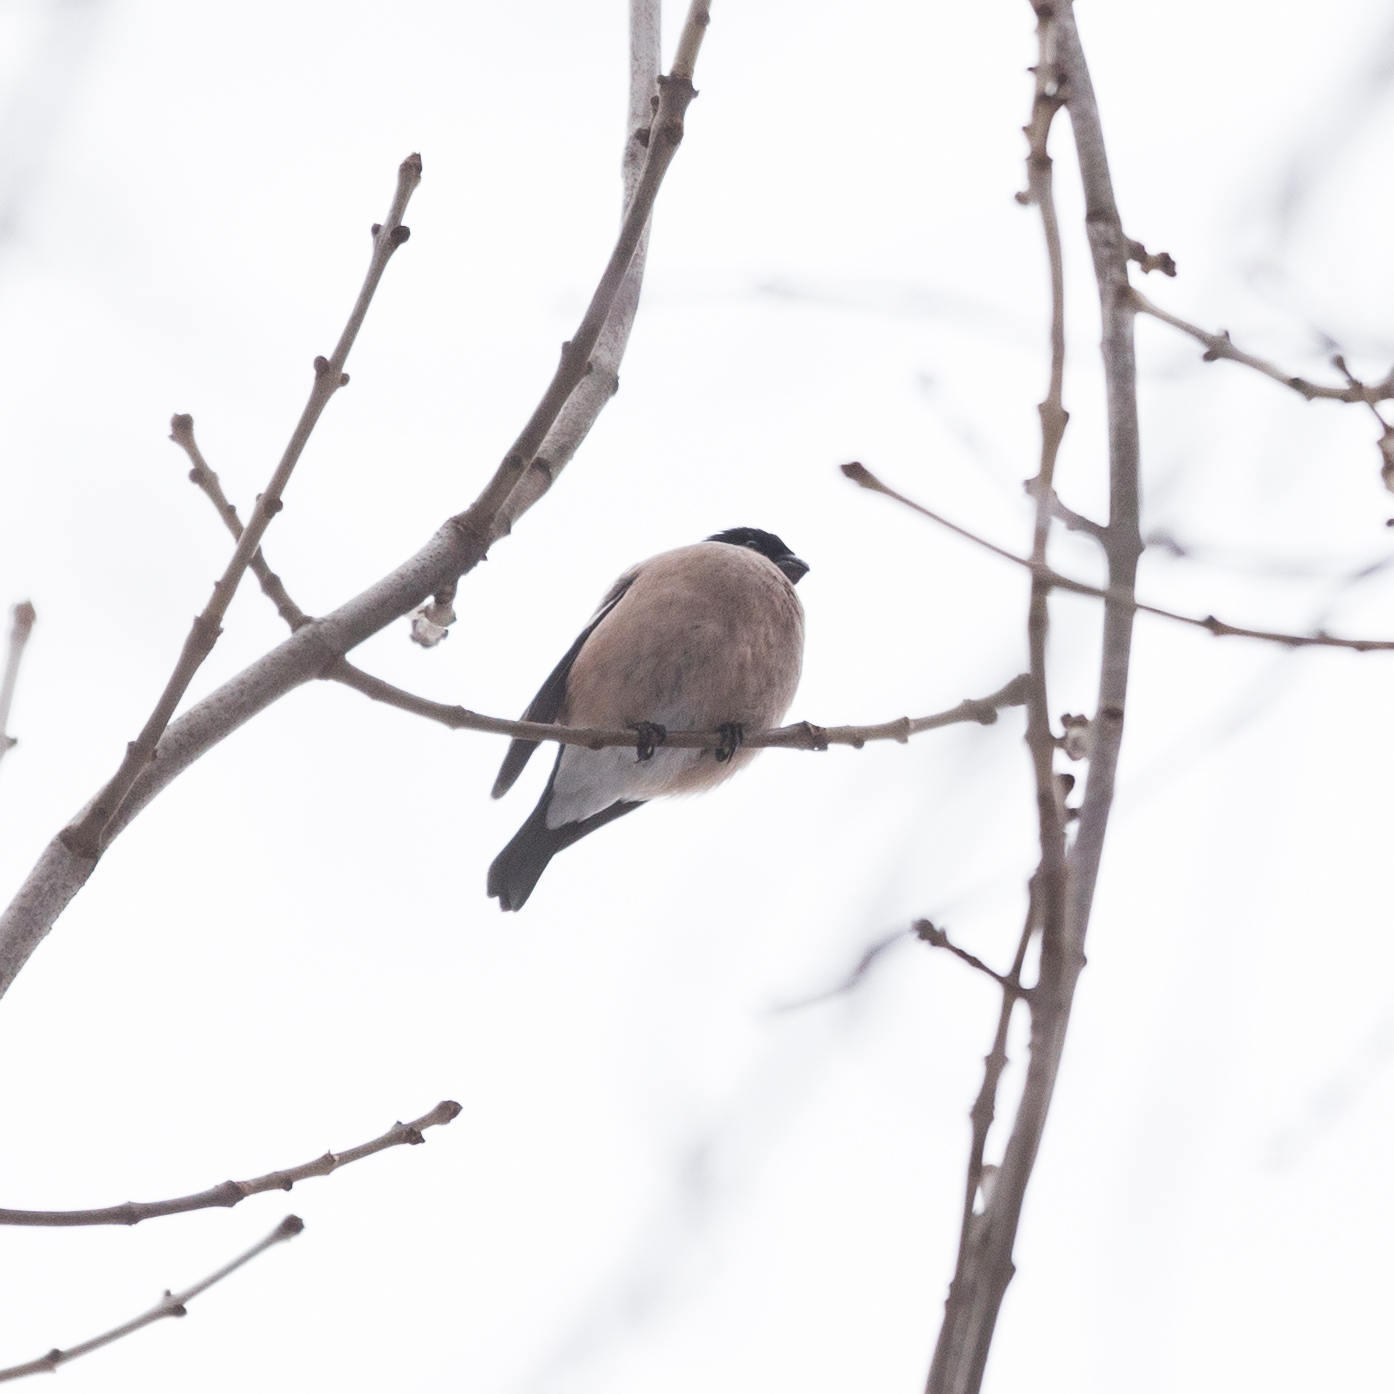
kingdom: Animalia
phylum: Chordata
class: Aves
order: Passeriformes
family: Fringillidae
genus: Pyrrhula
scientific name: Pyrrhula pyrrhula
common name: Eurasian bullfinch
